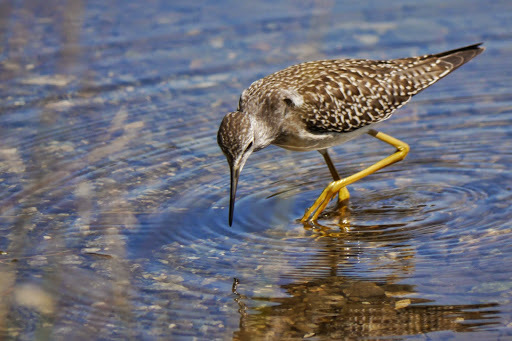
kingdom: Animalia
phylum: Chordata
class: Aves
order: Charadriiformes
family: Scolopacidae
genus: Tringa
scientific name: Tringa flavipes
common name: Lesser yellowlegs
